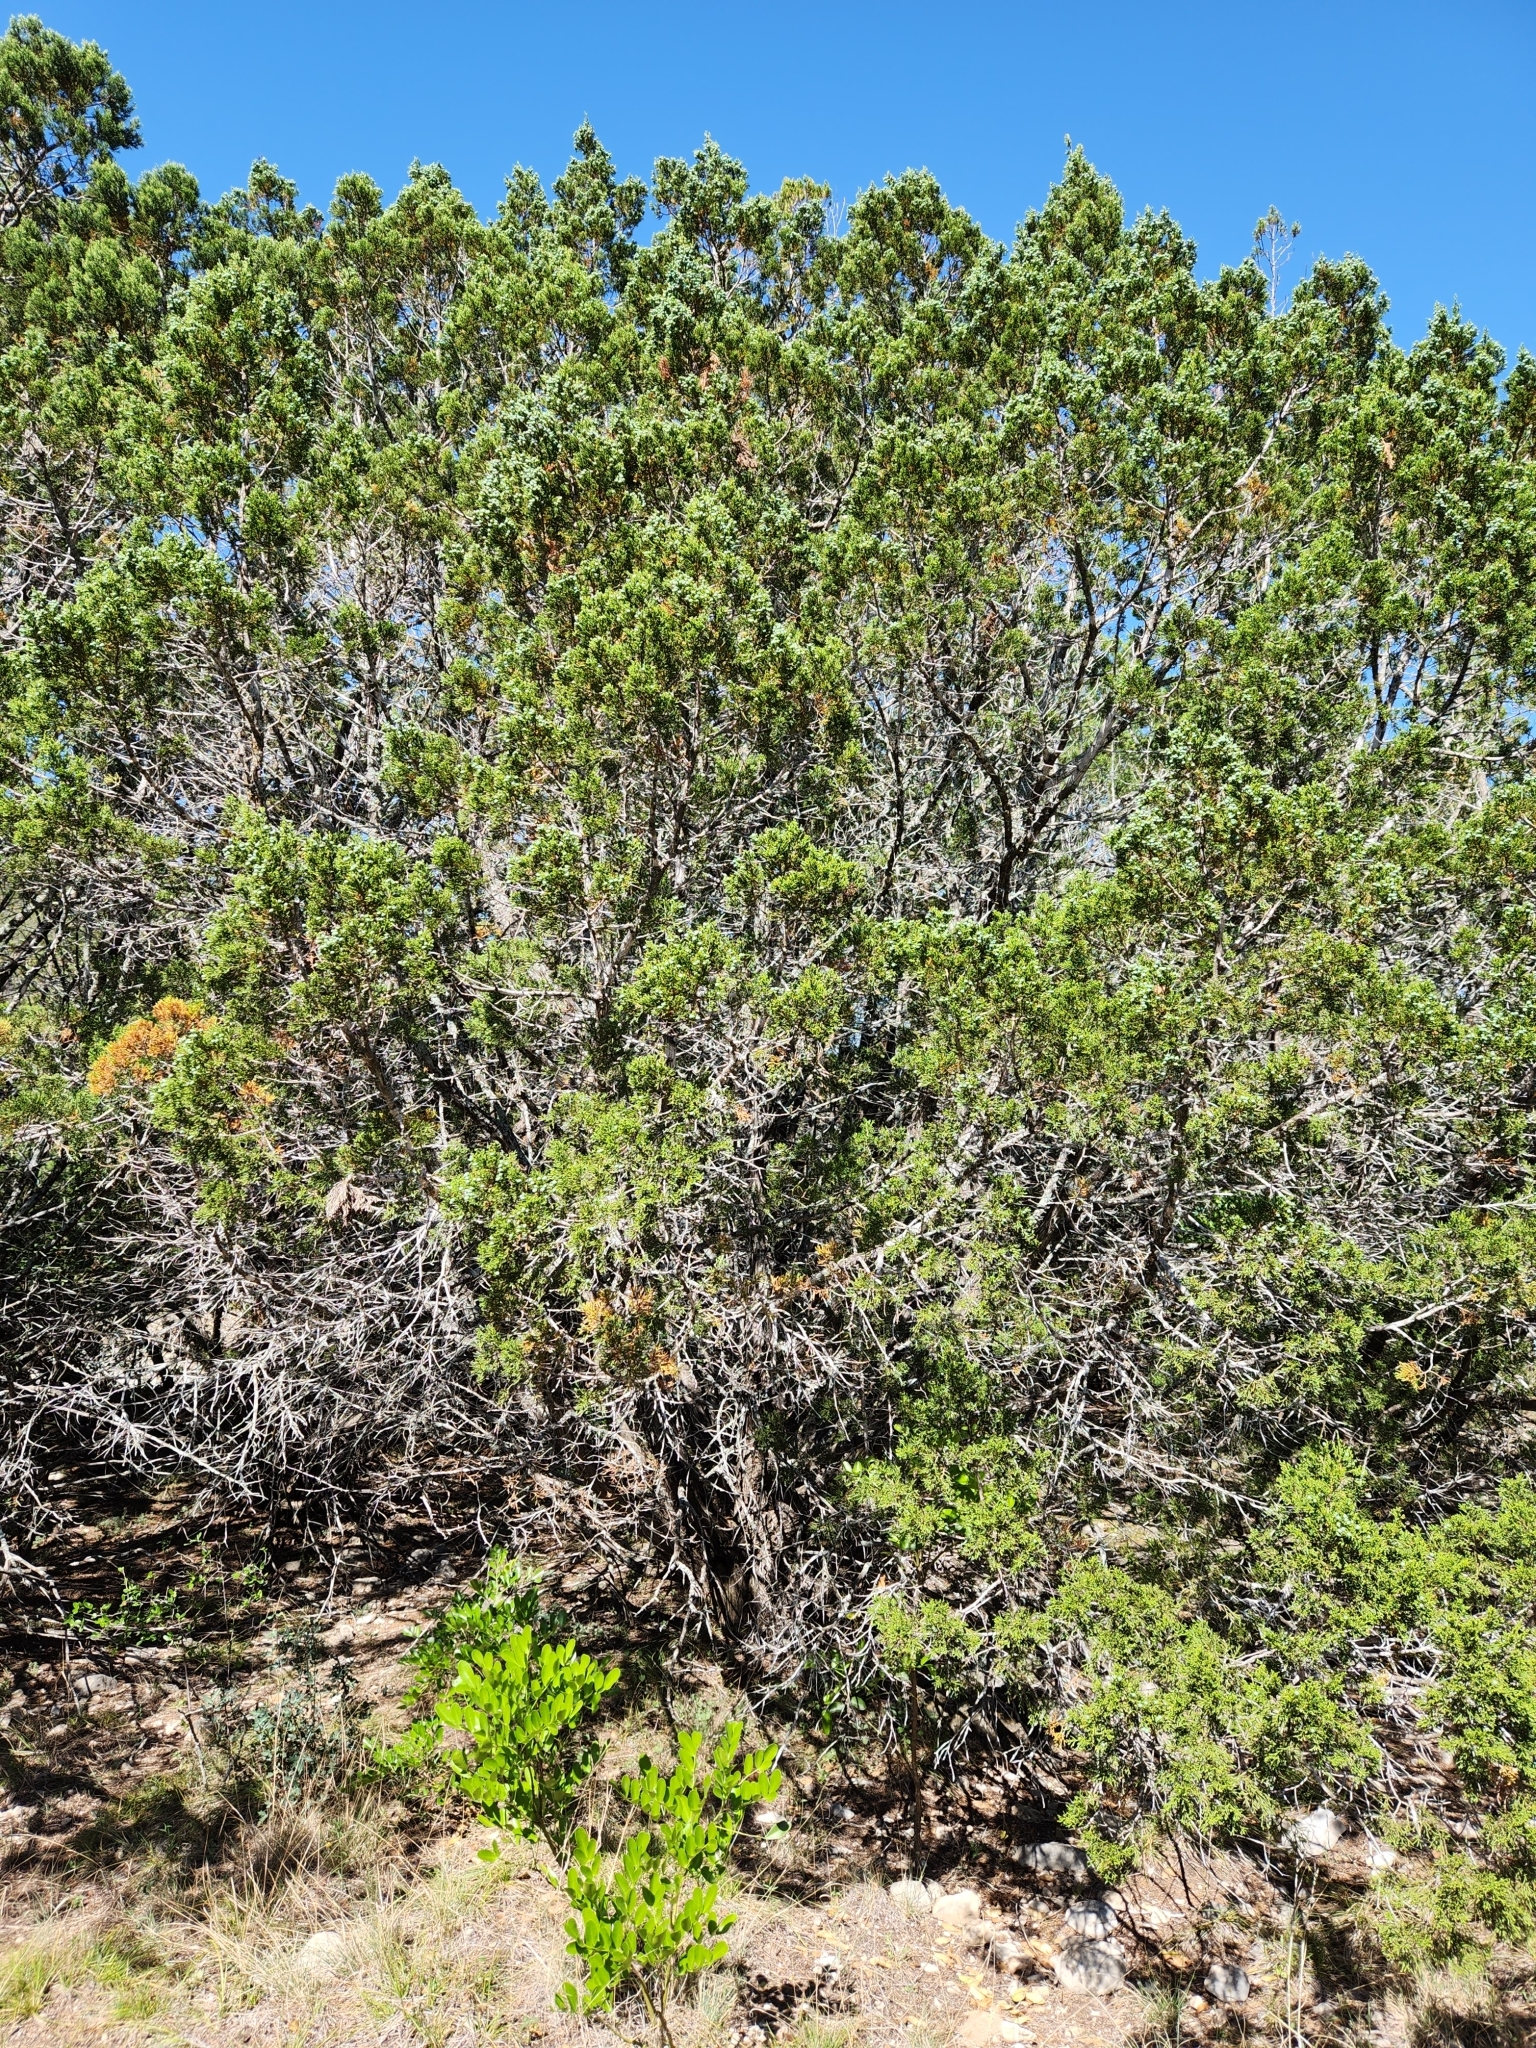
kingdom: Plantae
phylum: Tracheophyta
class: Pinopsida
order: Pinales
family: Cupressaceae
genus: Juniperus
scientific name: Juniperus ashei
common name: Mexican juniper
